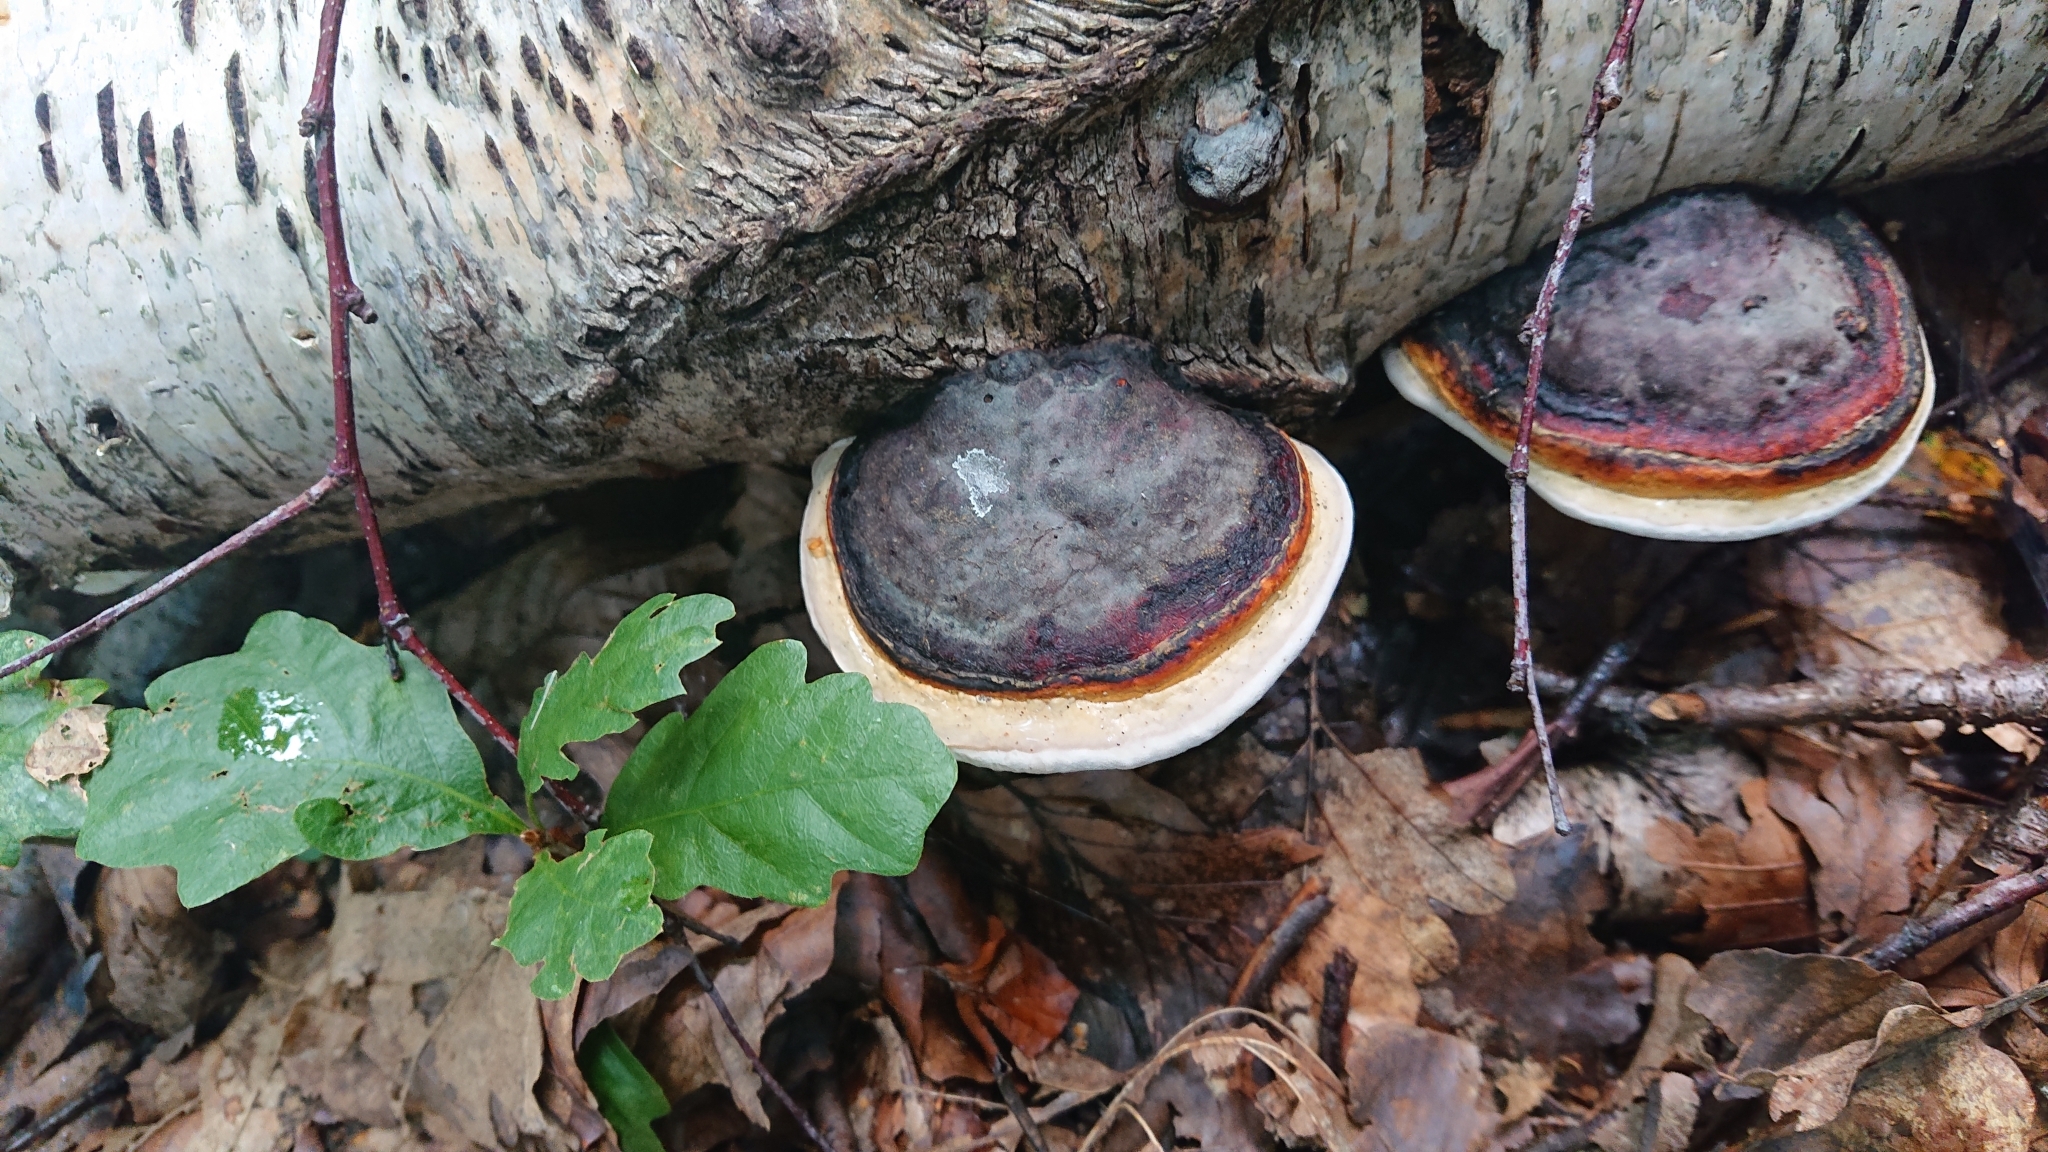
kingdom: Fungi
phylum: Basidiomycota
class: Agaricomycetes
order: Polyporales
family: Fomitopsidaceae
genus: Fomitopsis
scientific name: Fomitopsis pinicola
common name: Red-belted bracket
